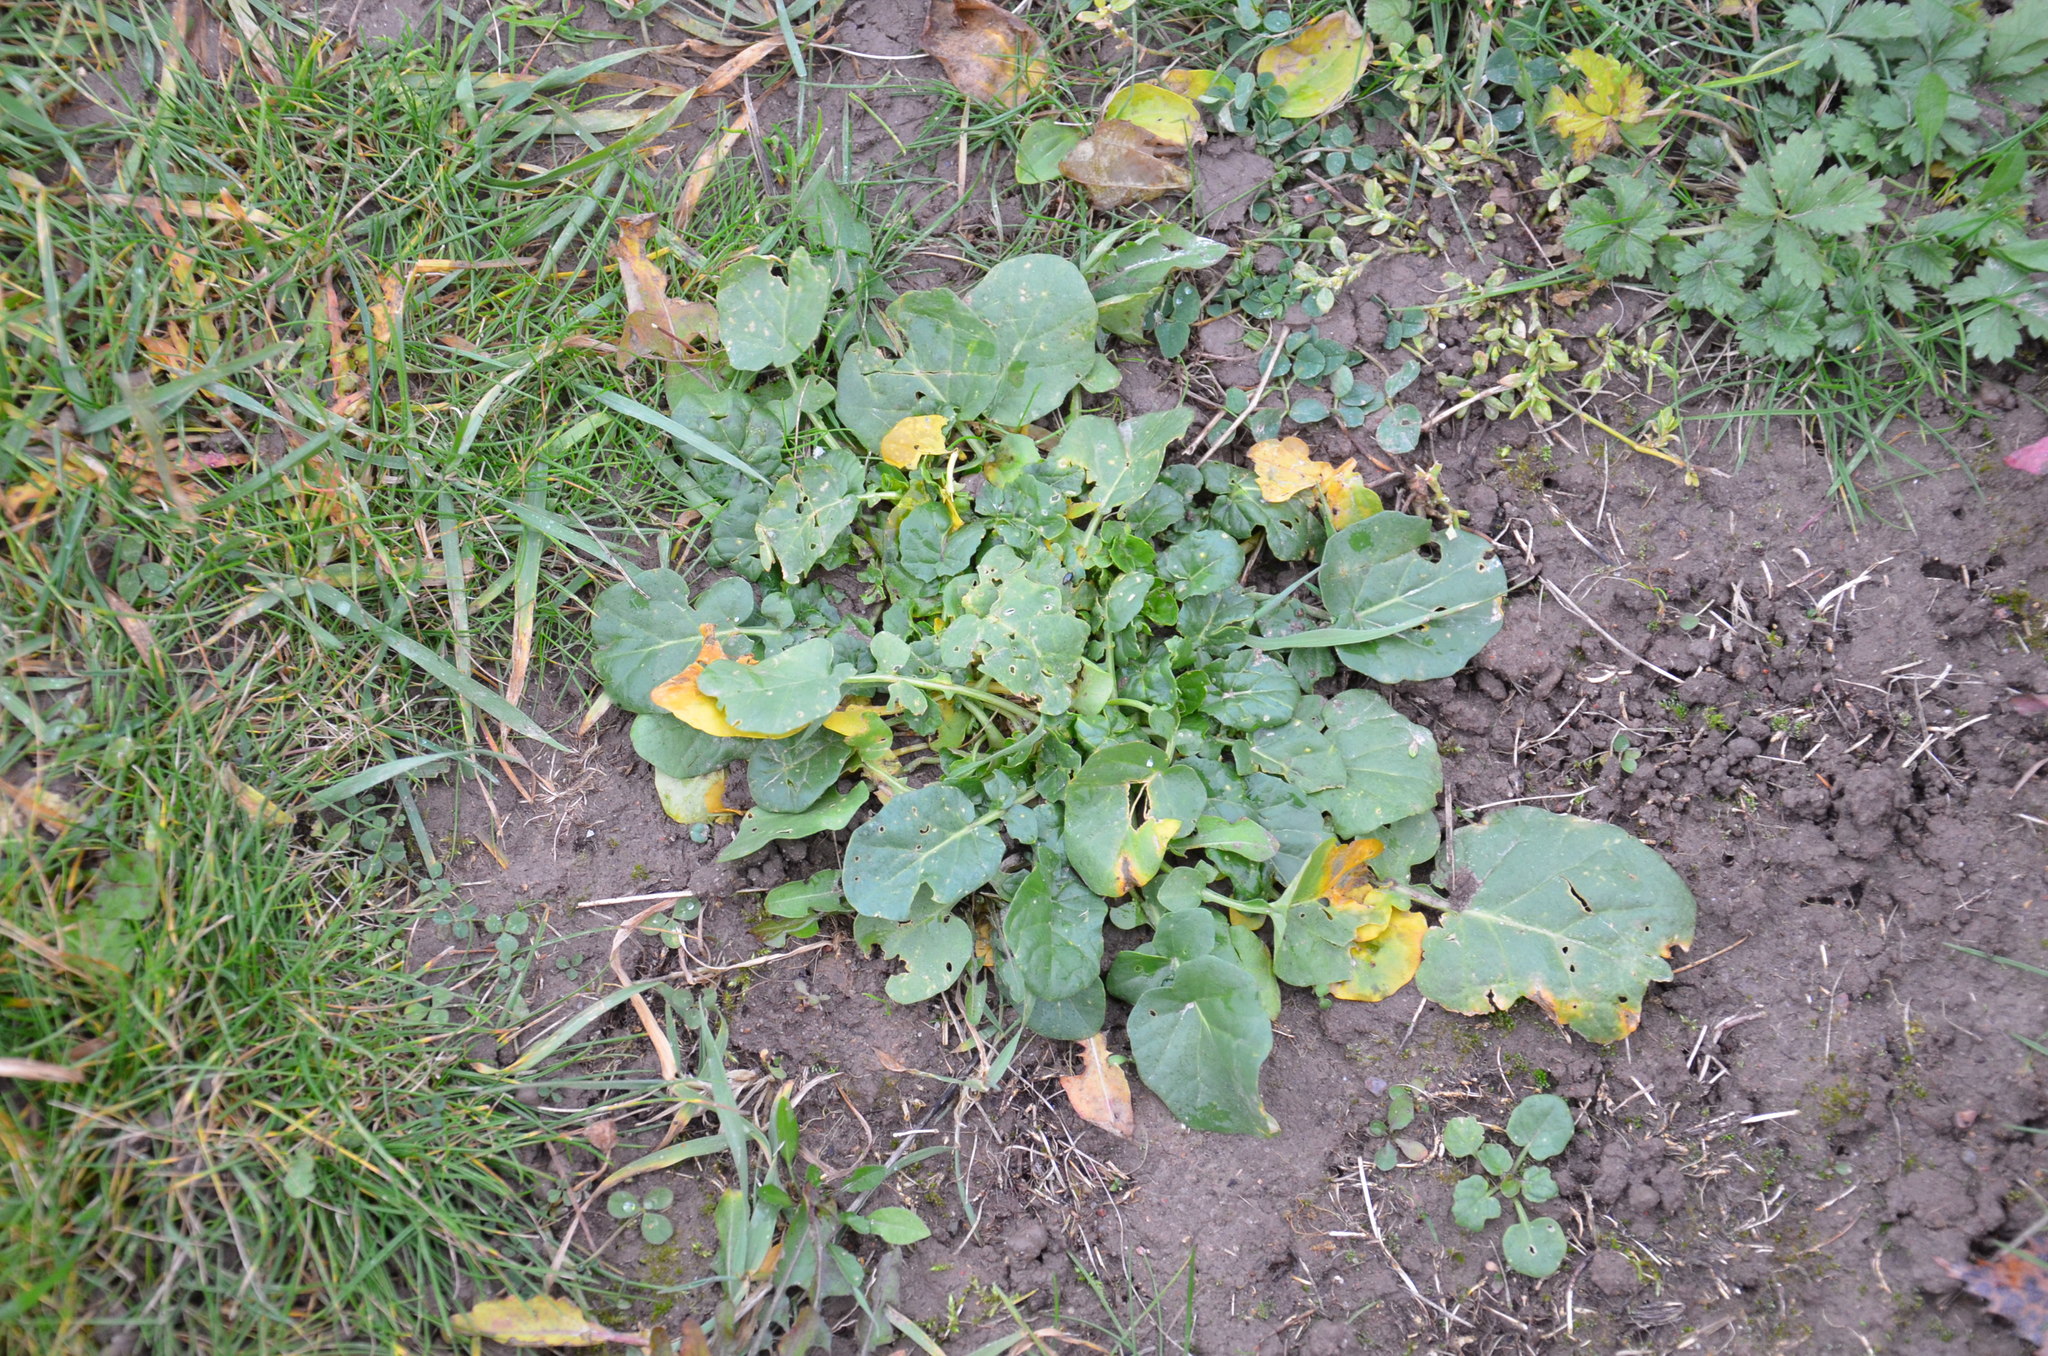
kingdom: Plantae
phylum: Tracheophyta
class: Magnoliopsida
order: Brassicales
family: Brassicaceae
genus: Barbarea
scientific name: Barbarea vulgaris
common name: Cressy-greens
